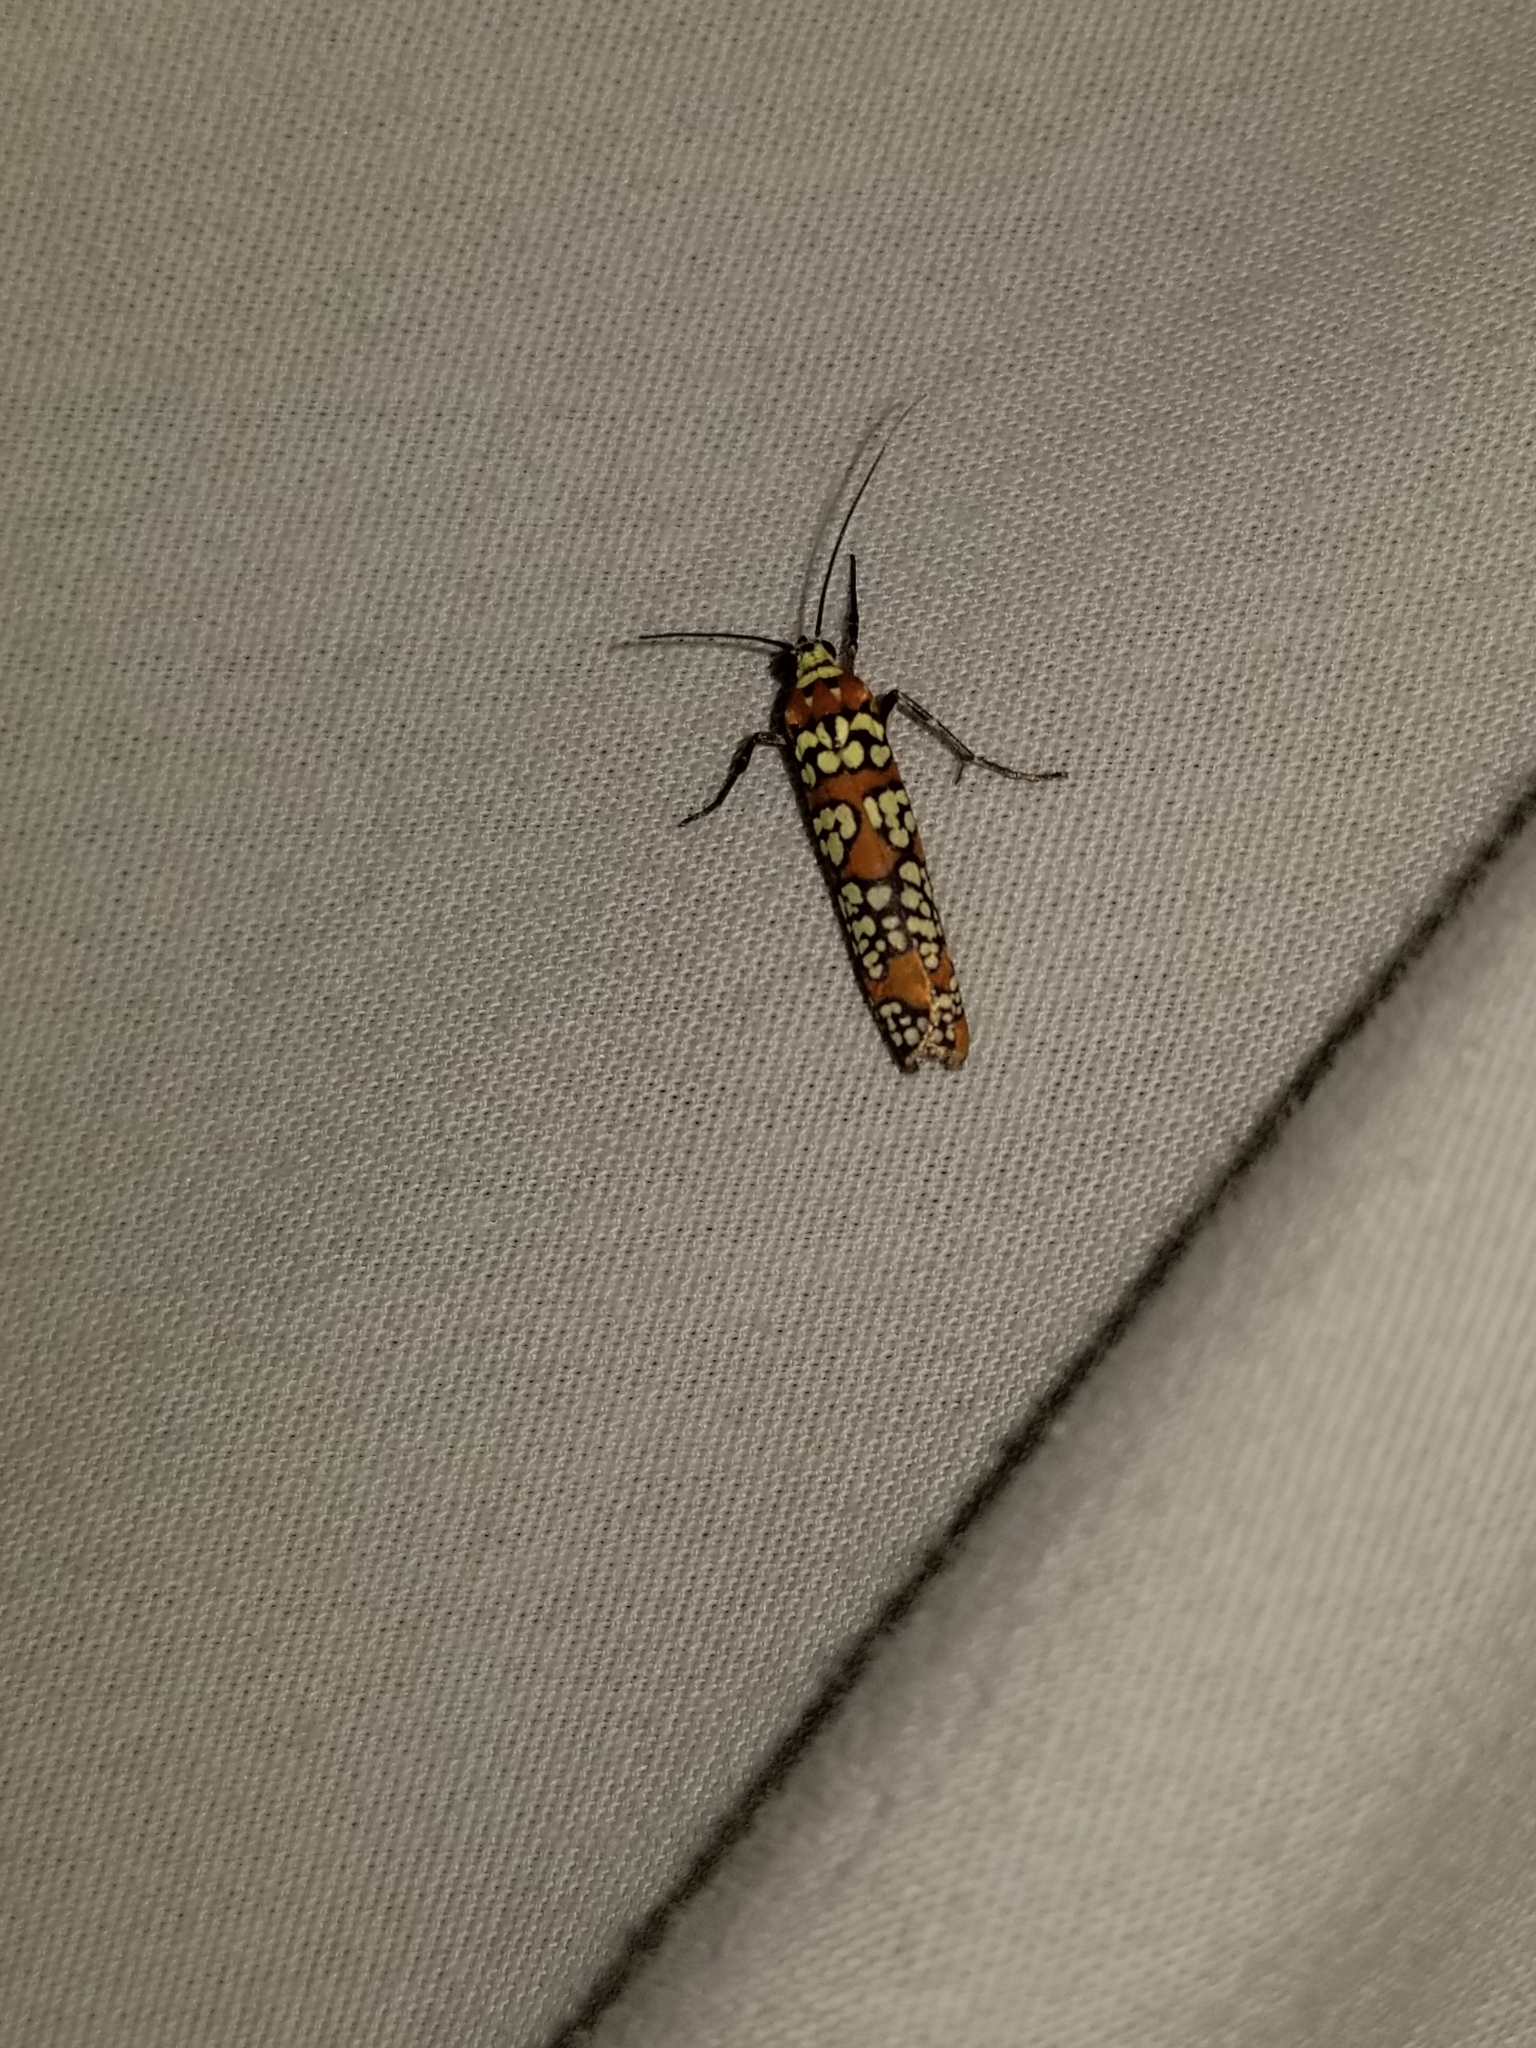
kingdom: Animalia
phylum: Arthropoda
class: Insecta
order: Lepidoptera
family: Attevidae
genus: Atteva
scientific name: Atteva punctella
